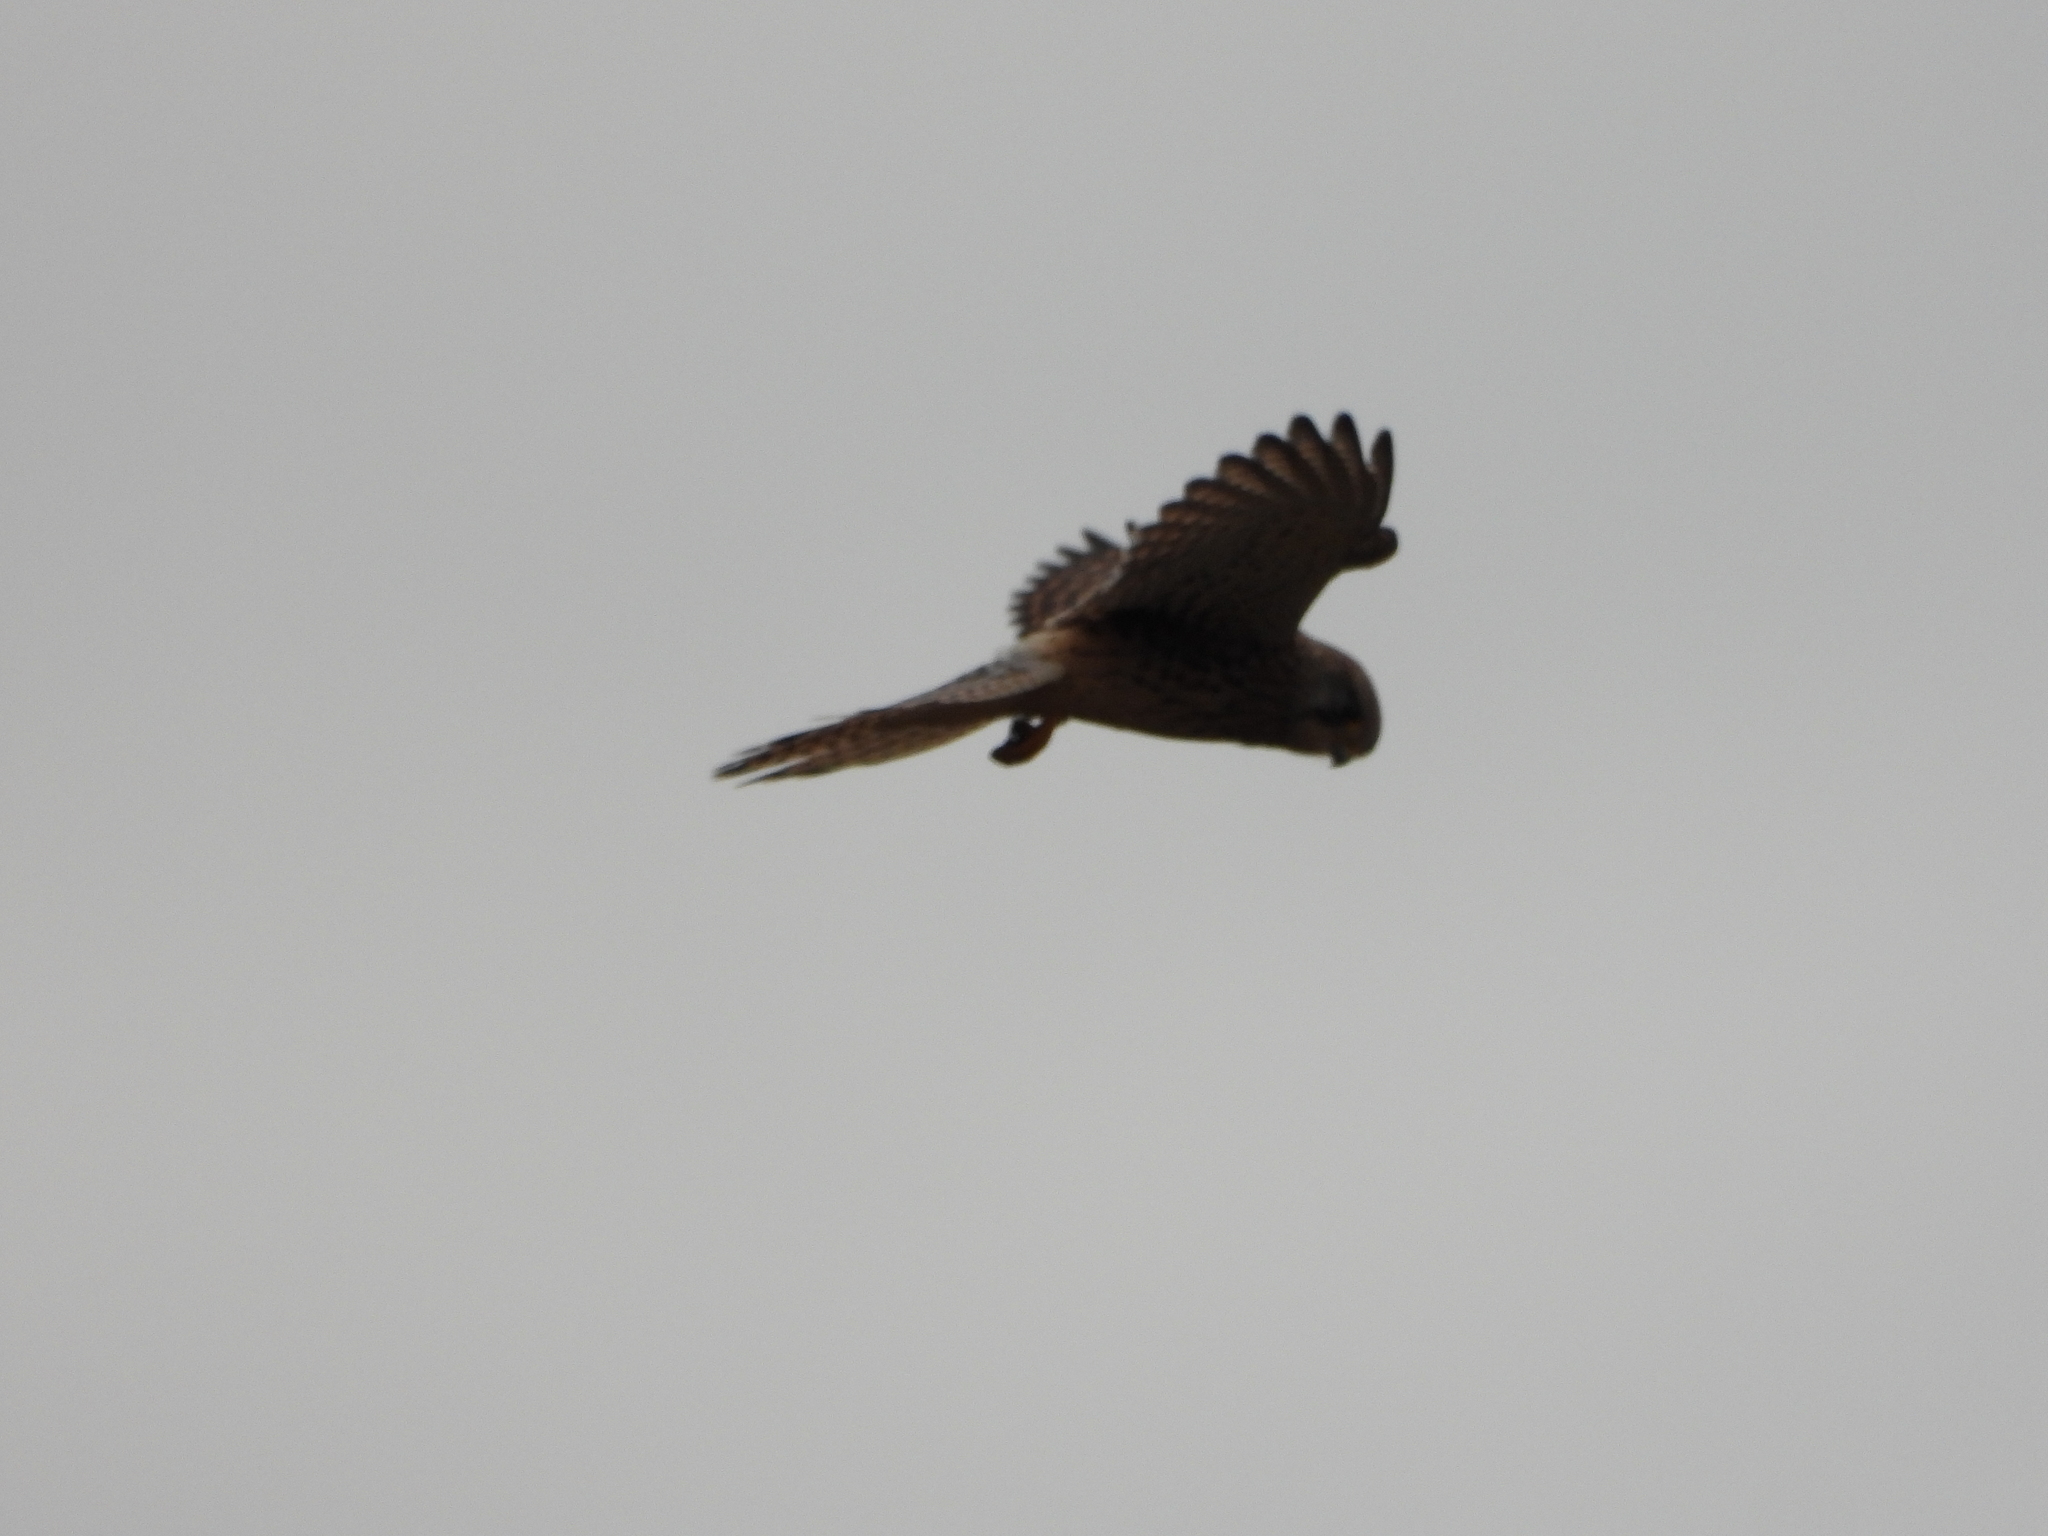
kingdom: Animalia
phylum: Chordata
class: Aves
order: Falconiformes
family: Falconidae
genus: Falco
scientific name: Falco tinnunculus
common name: Common kestrel
